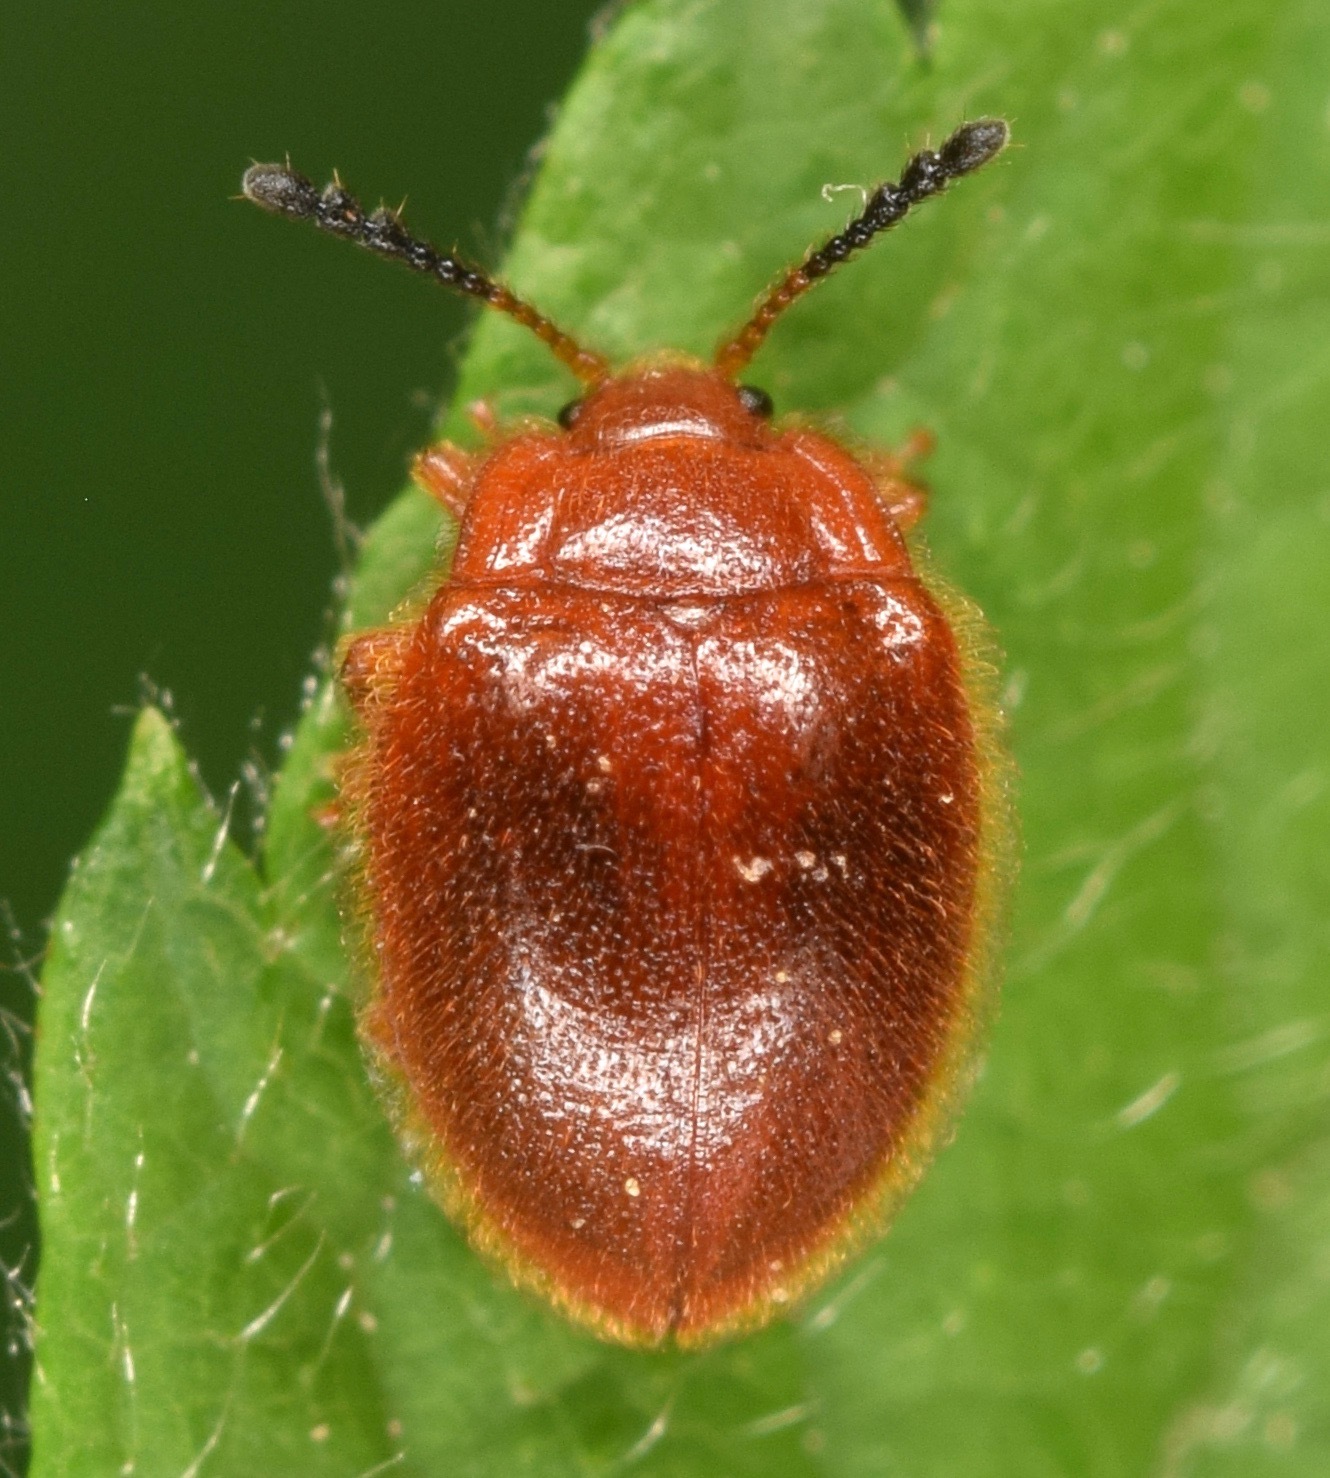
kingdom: Animalia
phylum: Arthropoda
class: Insecta
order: Coleoptera
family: Endomychidae
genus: Stenotarsus
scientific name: Stenotarsus blatchleyi
